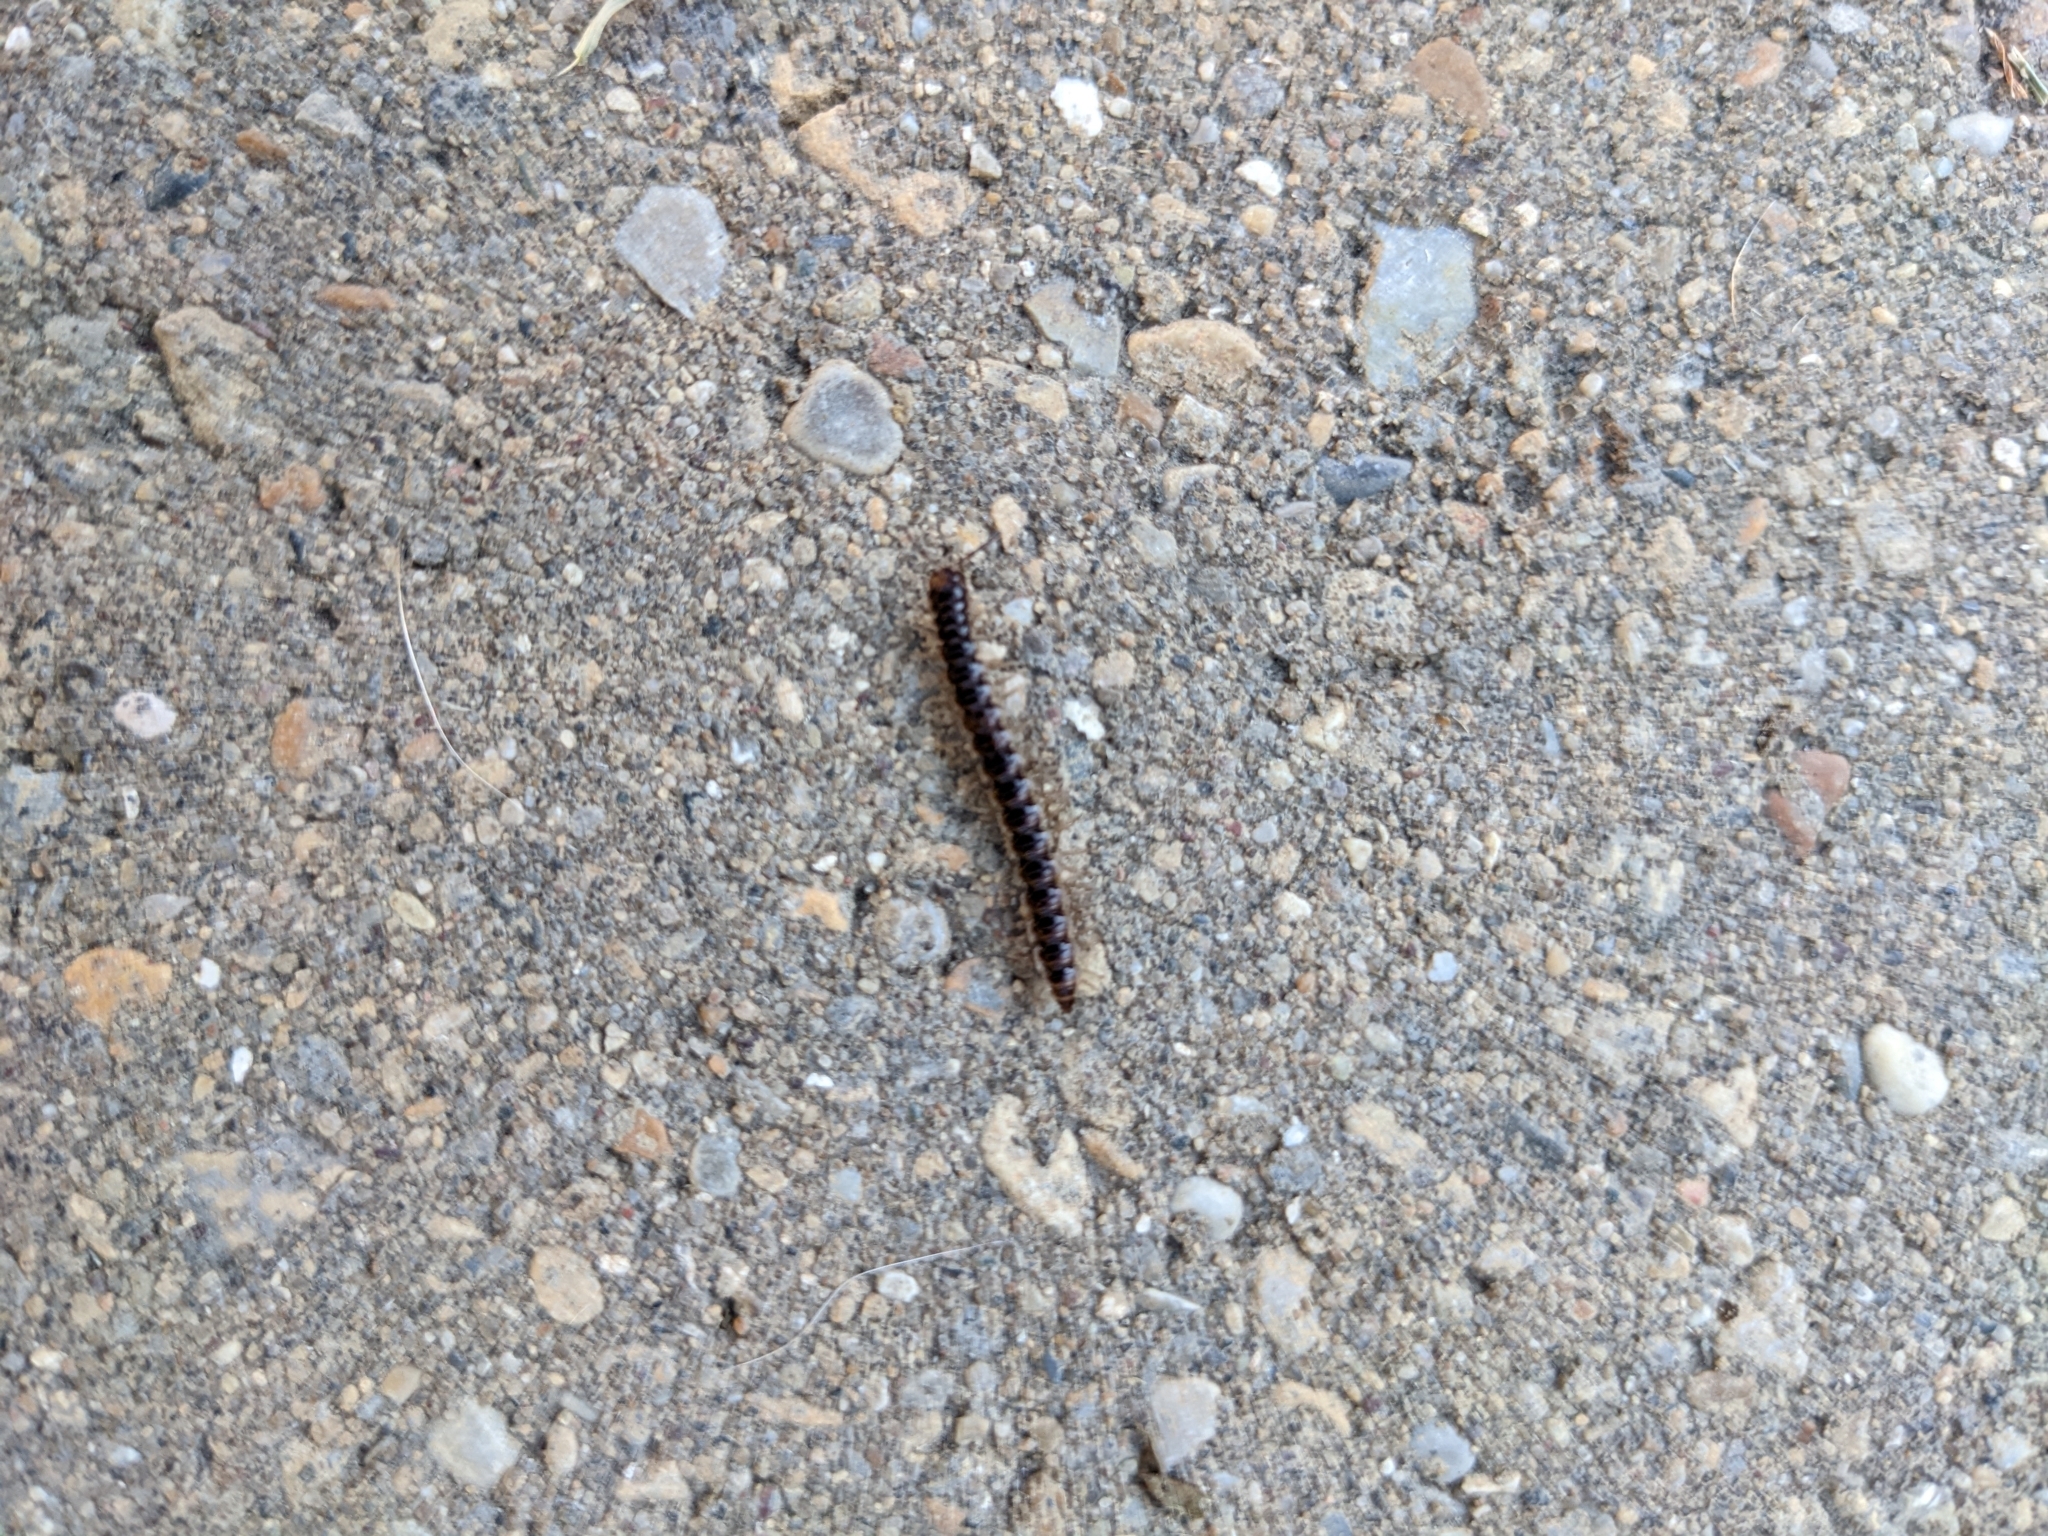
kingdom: Animalia
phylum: Arthropoda
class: Diplopoda
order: Polydesmida
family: Paradoxosomatidae
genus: Oxidus
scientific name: Oxidus gracilis
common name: Greenhouse millipede
